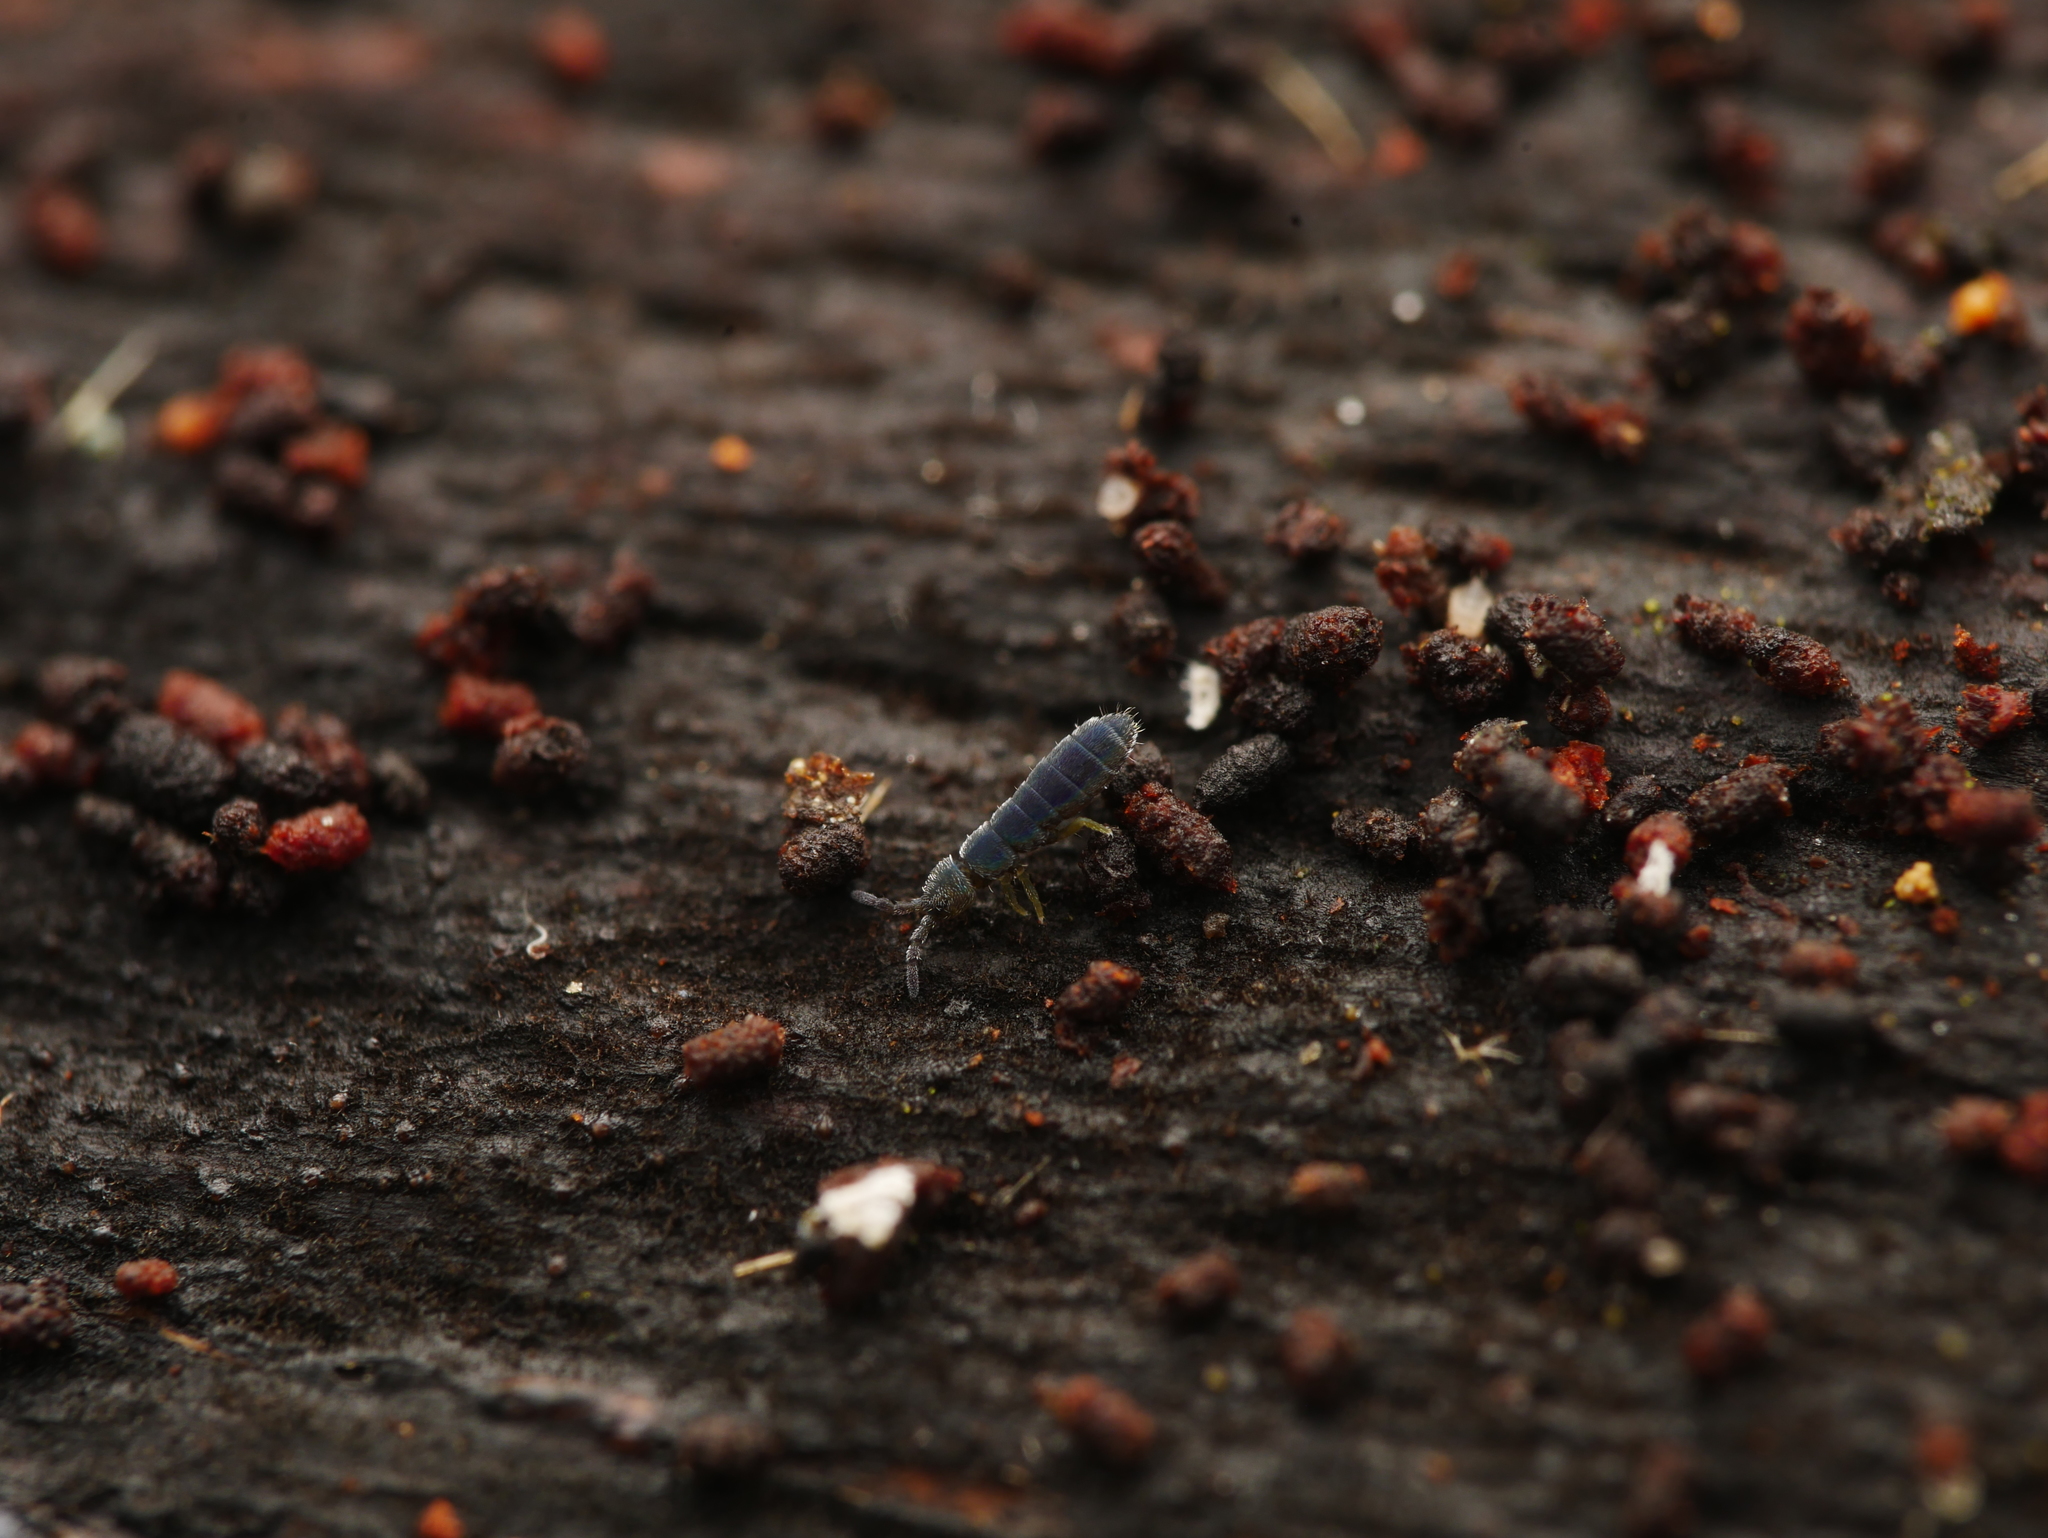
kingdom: Animalia
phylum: Arthropoda
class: Collembola
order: Entomobryomorpha
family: Isotomidae
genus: Vertagopus
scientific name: Vertagopus asiaticus
